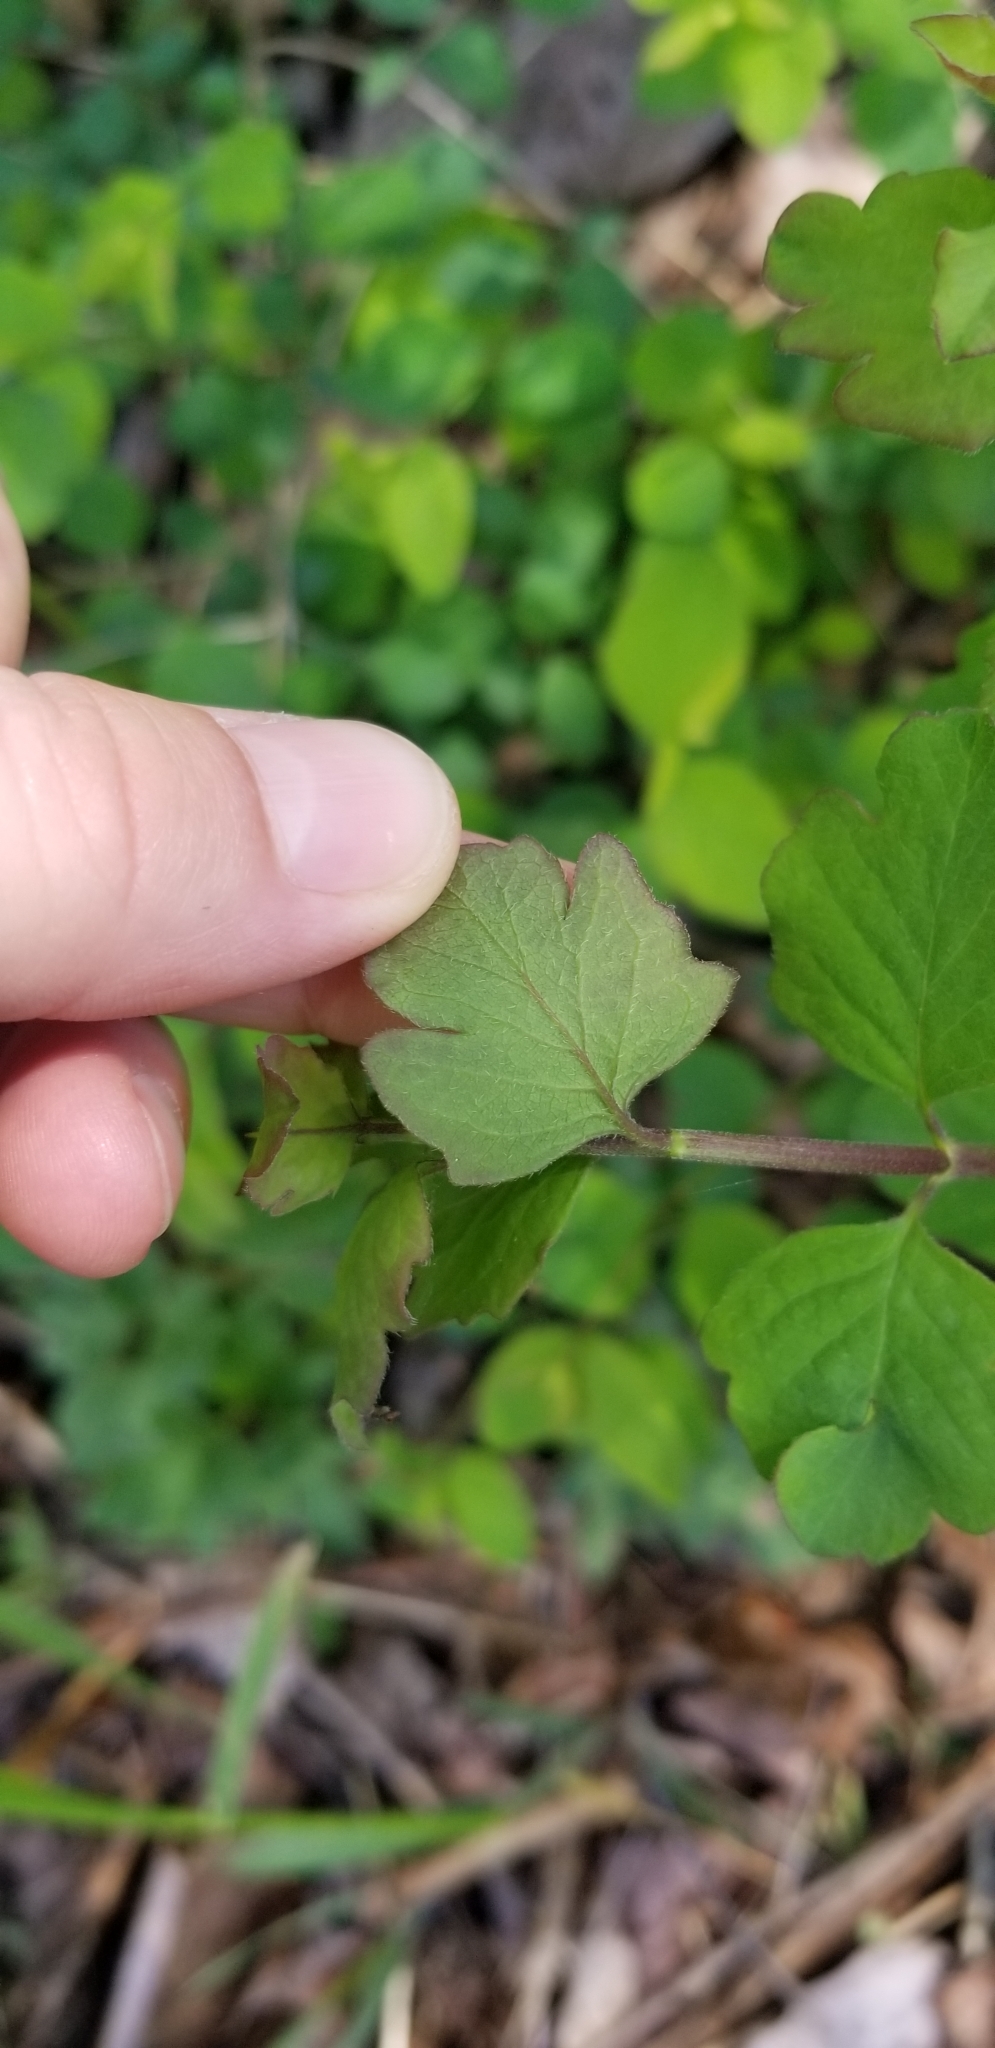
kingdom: Plantae
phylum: Tracheophyta
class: Magnoliopsida
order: Dipsacales
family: Caprifoliaceae
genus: Symphoricarpos
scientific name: Symphoricarpos albus
